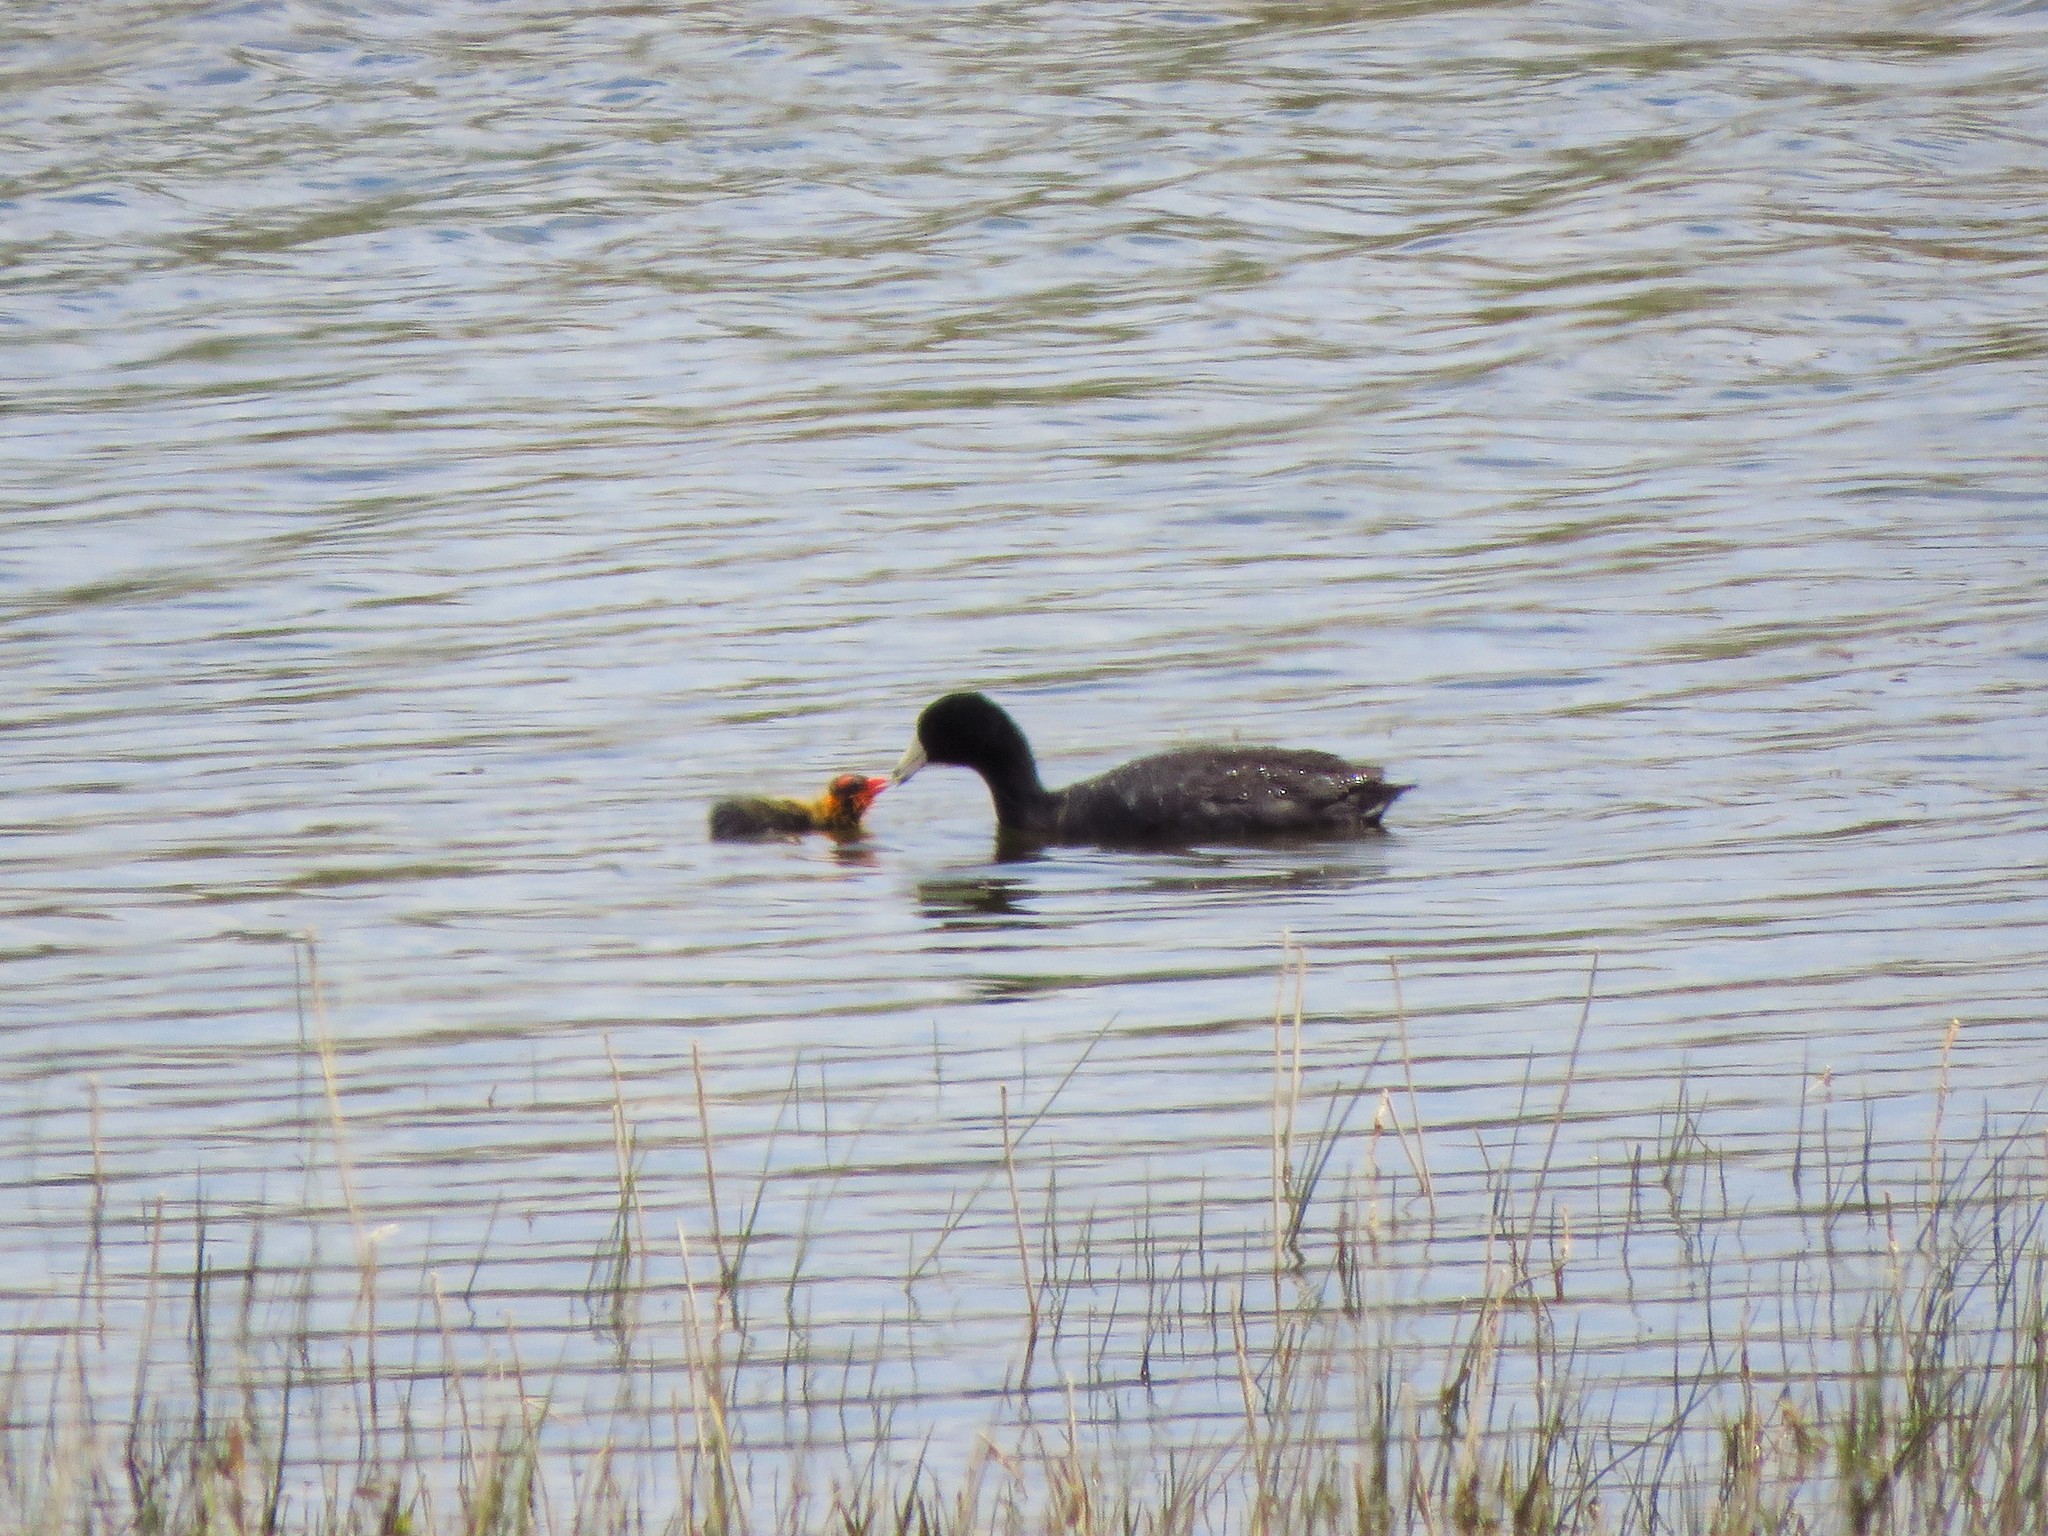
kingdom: Animalia
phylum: Chordata
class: Aves
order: Gruiformes
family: Rallidae
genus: Fulica
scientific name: Fulica americana
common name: American coot
